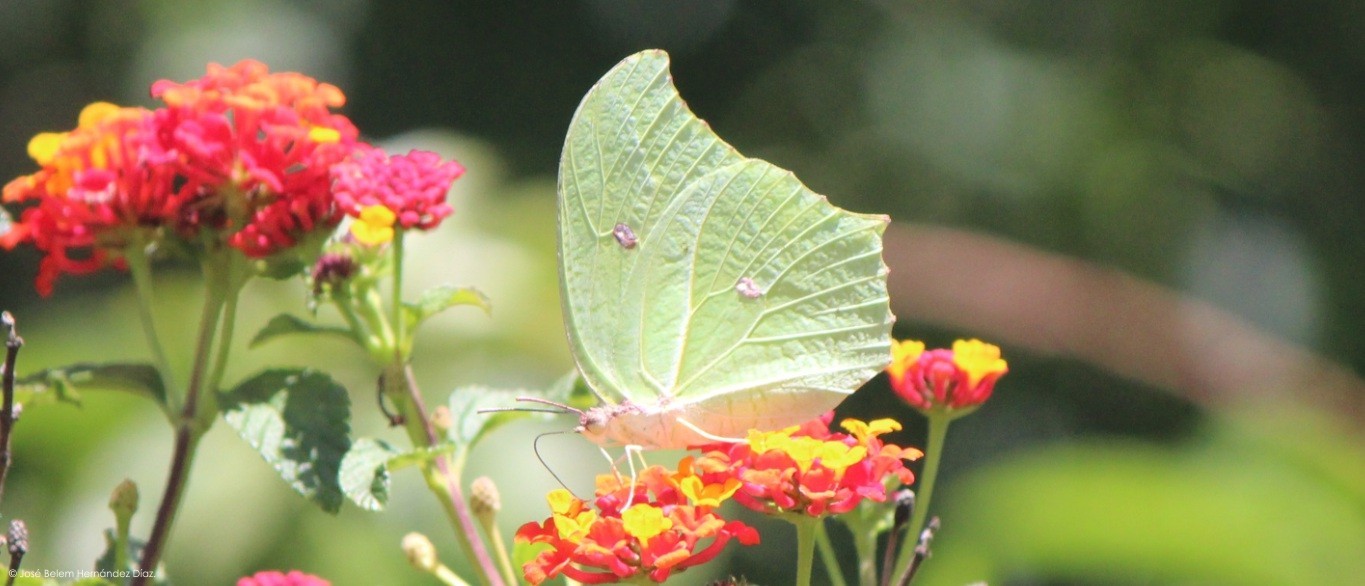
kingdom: Animalia
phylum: Arthropoda
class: Insecta
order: Lepidoptera
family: Pieridae
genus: Anteos
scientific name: Anteos maerula
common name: Angled sulphur
